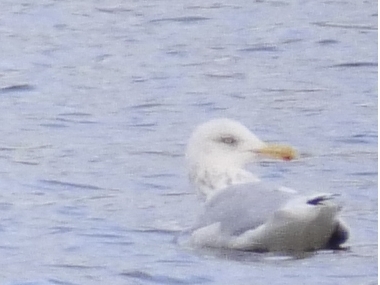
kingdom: Animalia
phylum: Chordata
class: Aves
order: Charadriiformes
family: Laridae
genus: Larus
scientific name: Larus argentatus
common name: Herring gull
